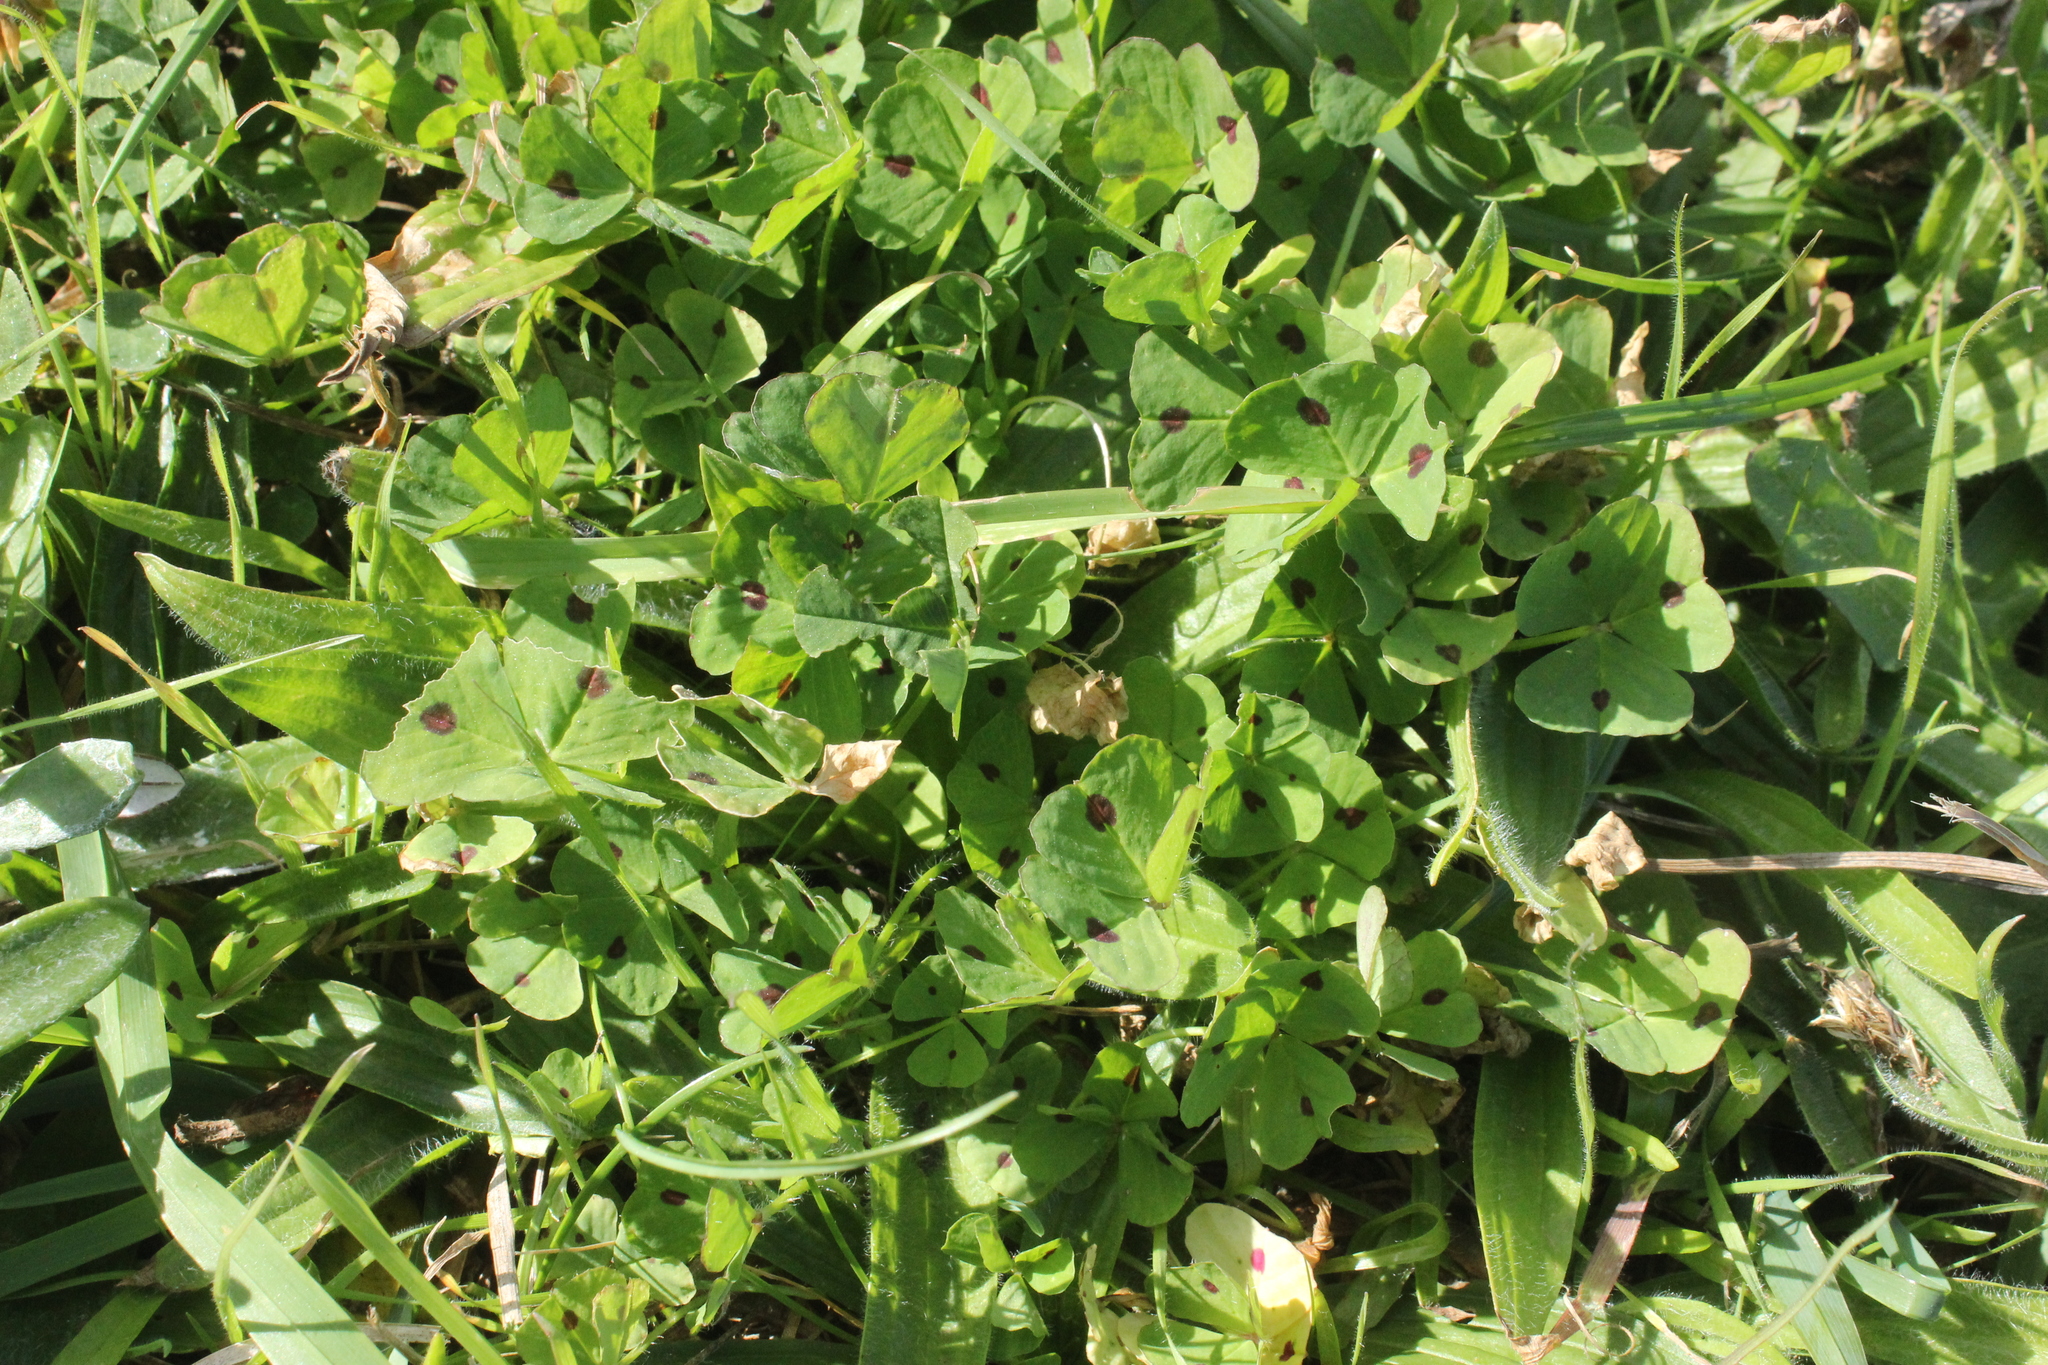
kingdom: Plantae
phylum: Tracheophyta
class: Magnoliopsida
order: Fabales
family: Fabaceae
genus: Medicago
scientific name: Medicago arabica
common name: Spotted medick
